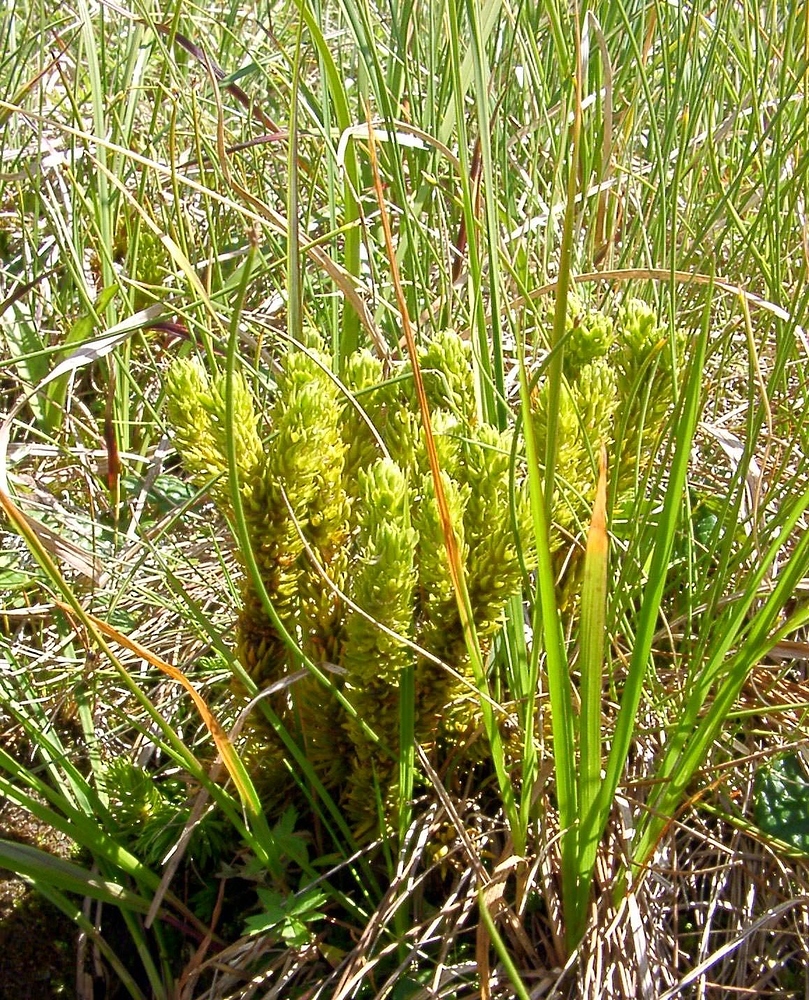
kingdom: Plantae
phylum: Tracheophyta
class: Lycopodiopsida
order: Lycopodiales
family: Lycopodiaceae
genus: Huperzia
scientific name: Huperzia selago
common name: Northern firmoss
